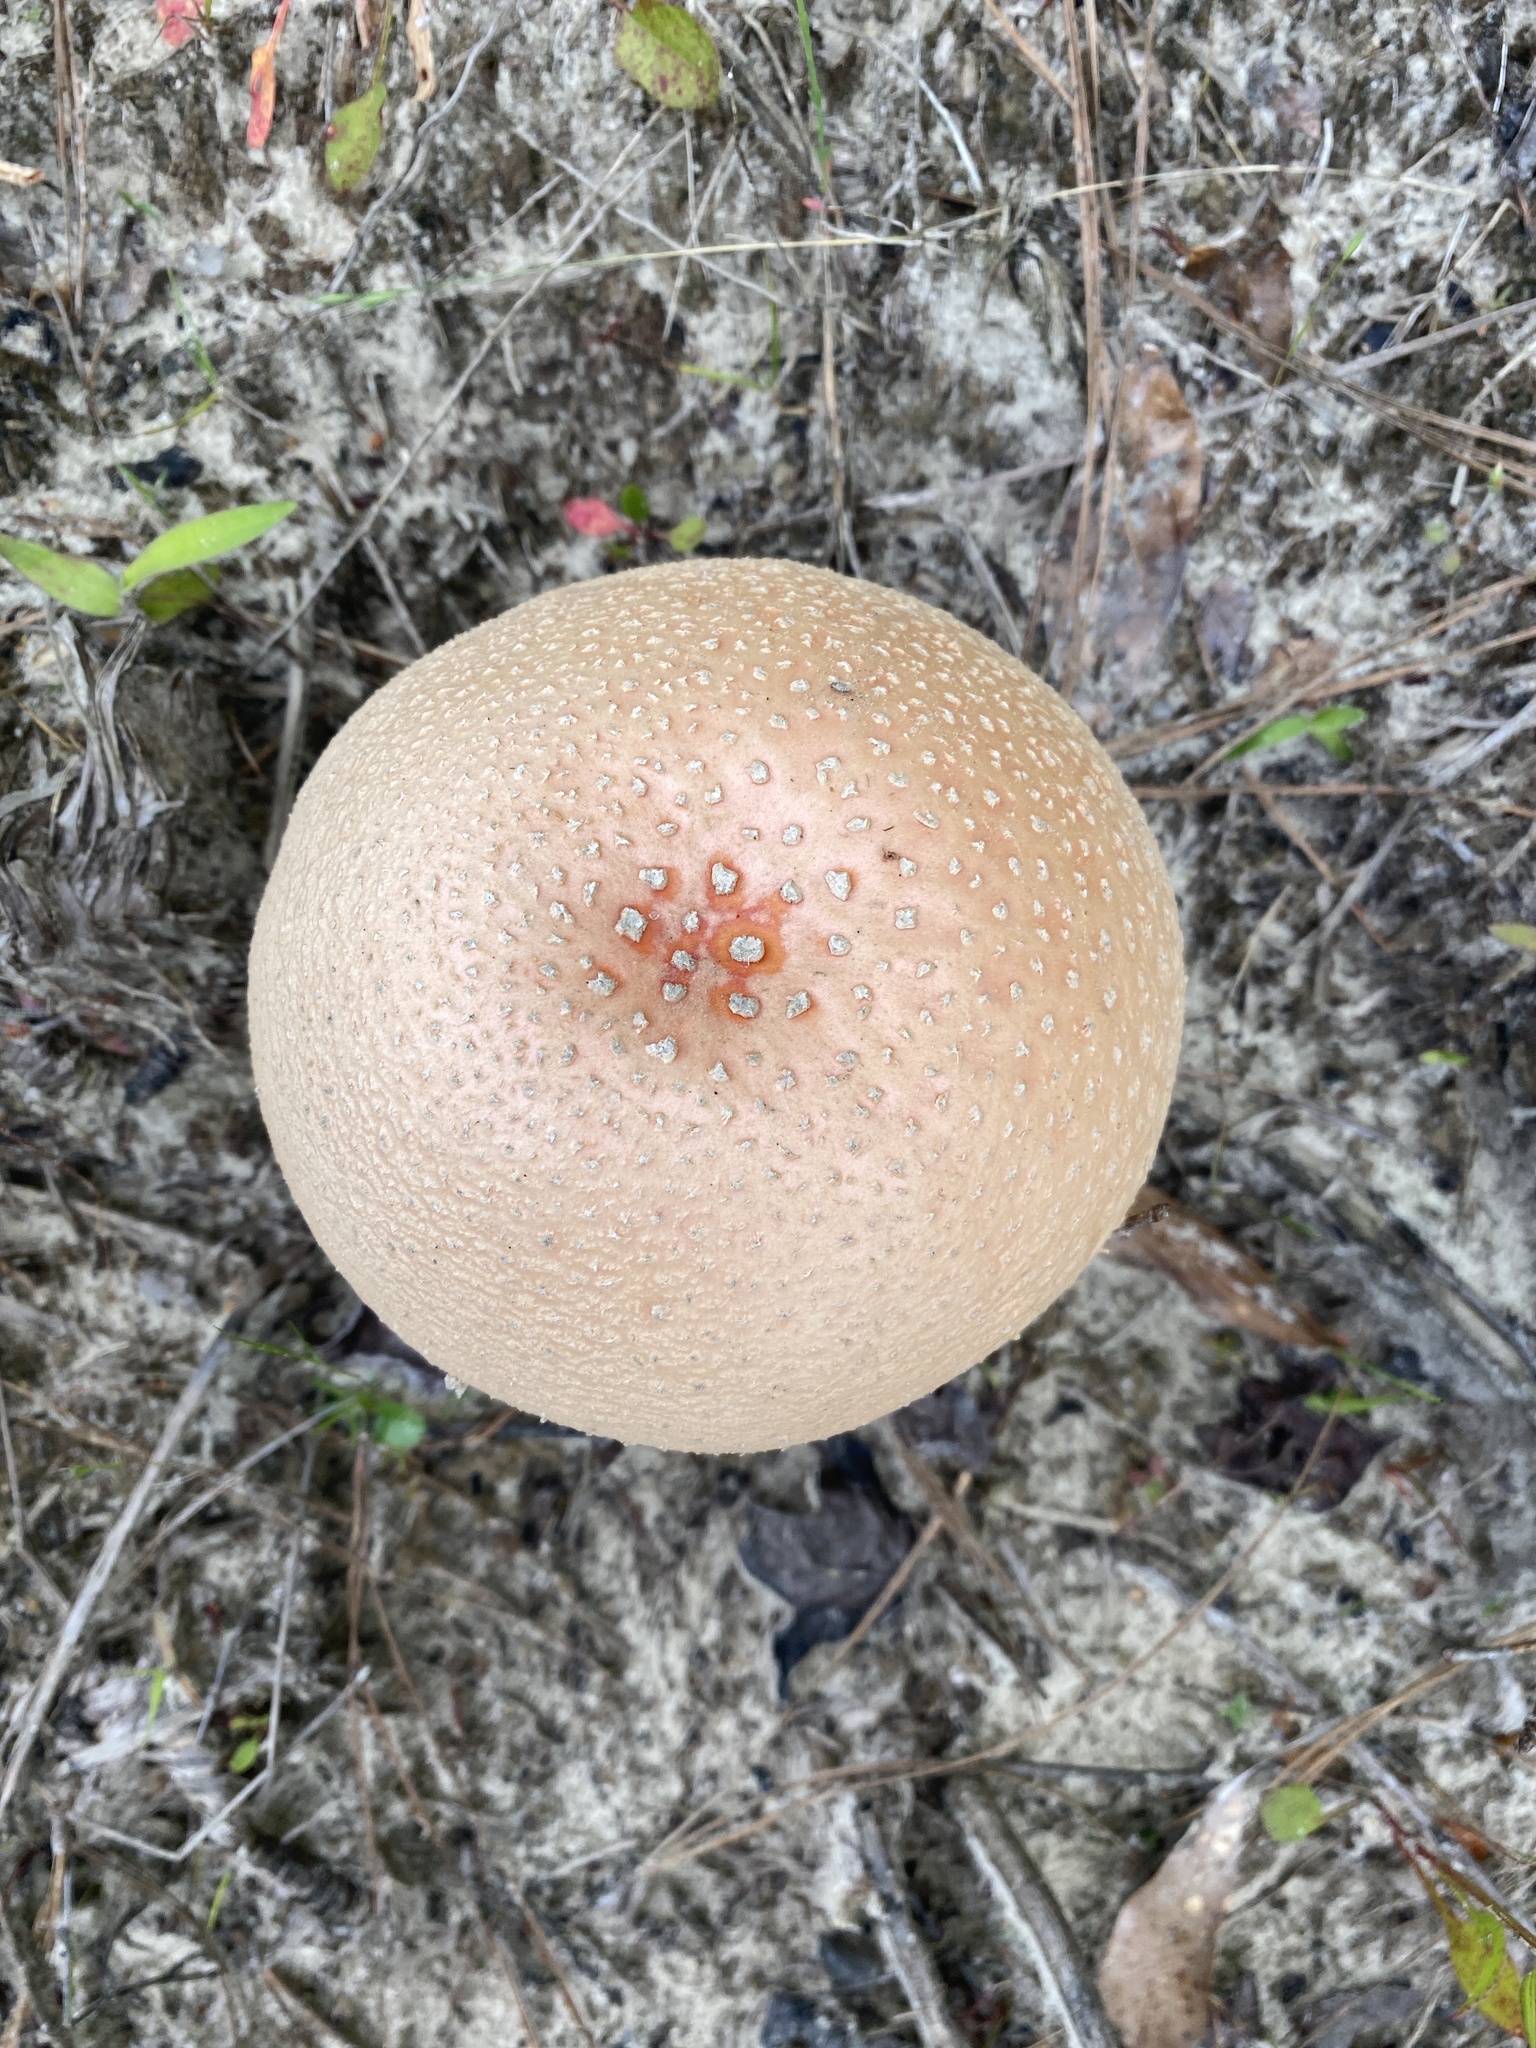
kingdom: Fungi
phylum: Basidiomycota
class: Agaricomycetes
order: Agaricales
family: Amanitaceae
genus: Amanita
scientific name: Amanita persicina
